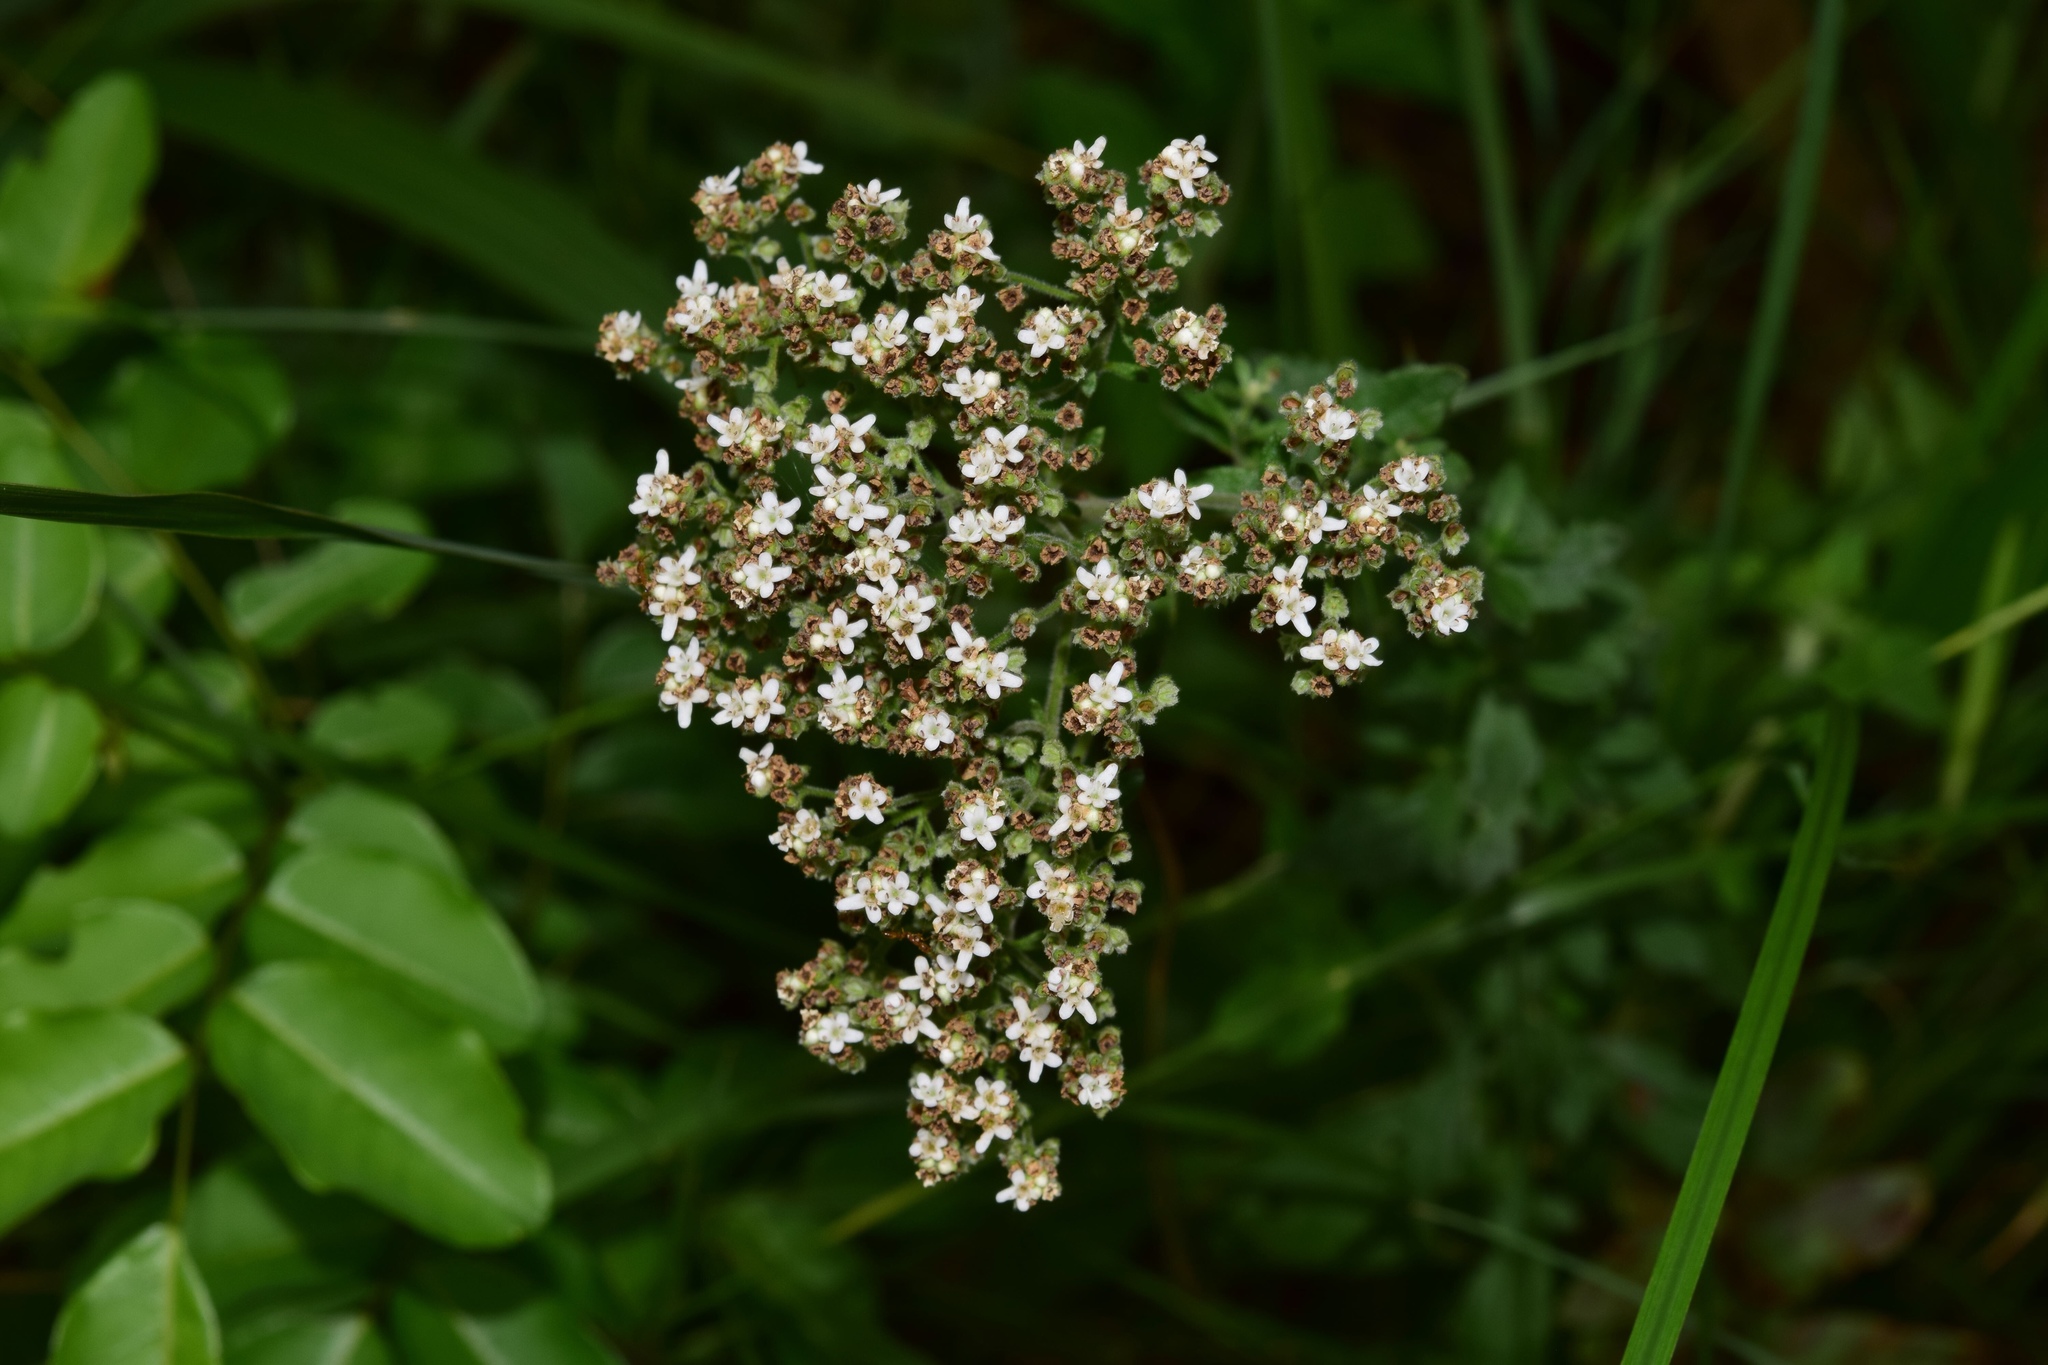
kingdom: Plantae
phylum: Tracheophyta
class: Magnoliopsida
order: Lamiales
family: Scrophulariaceae
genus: Chaenostoma
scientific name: Chaenostoma floribundum
